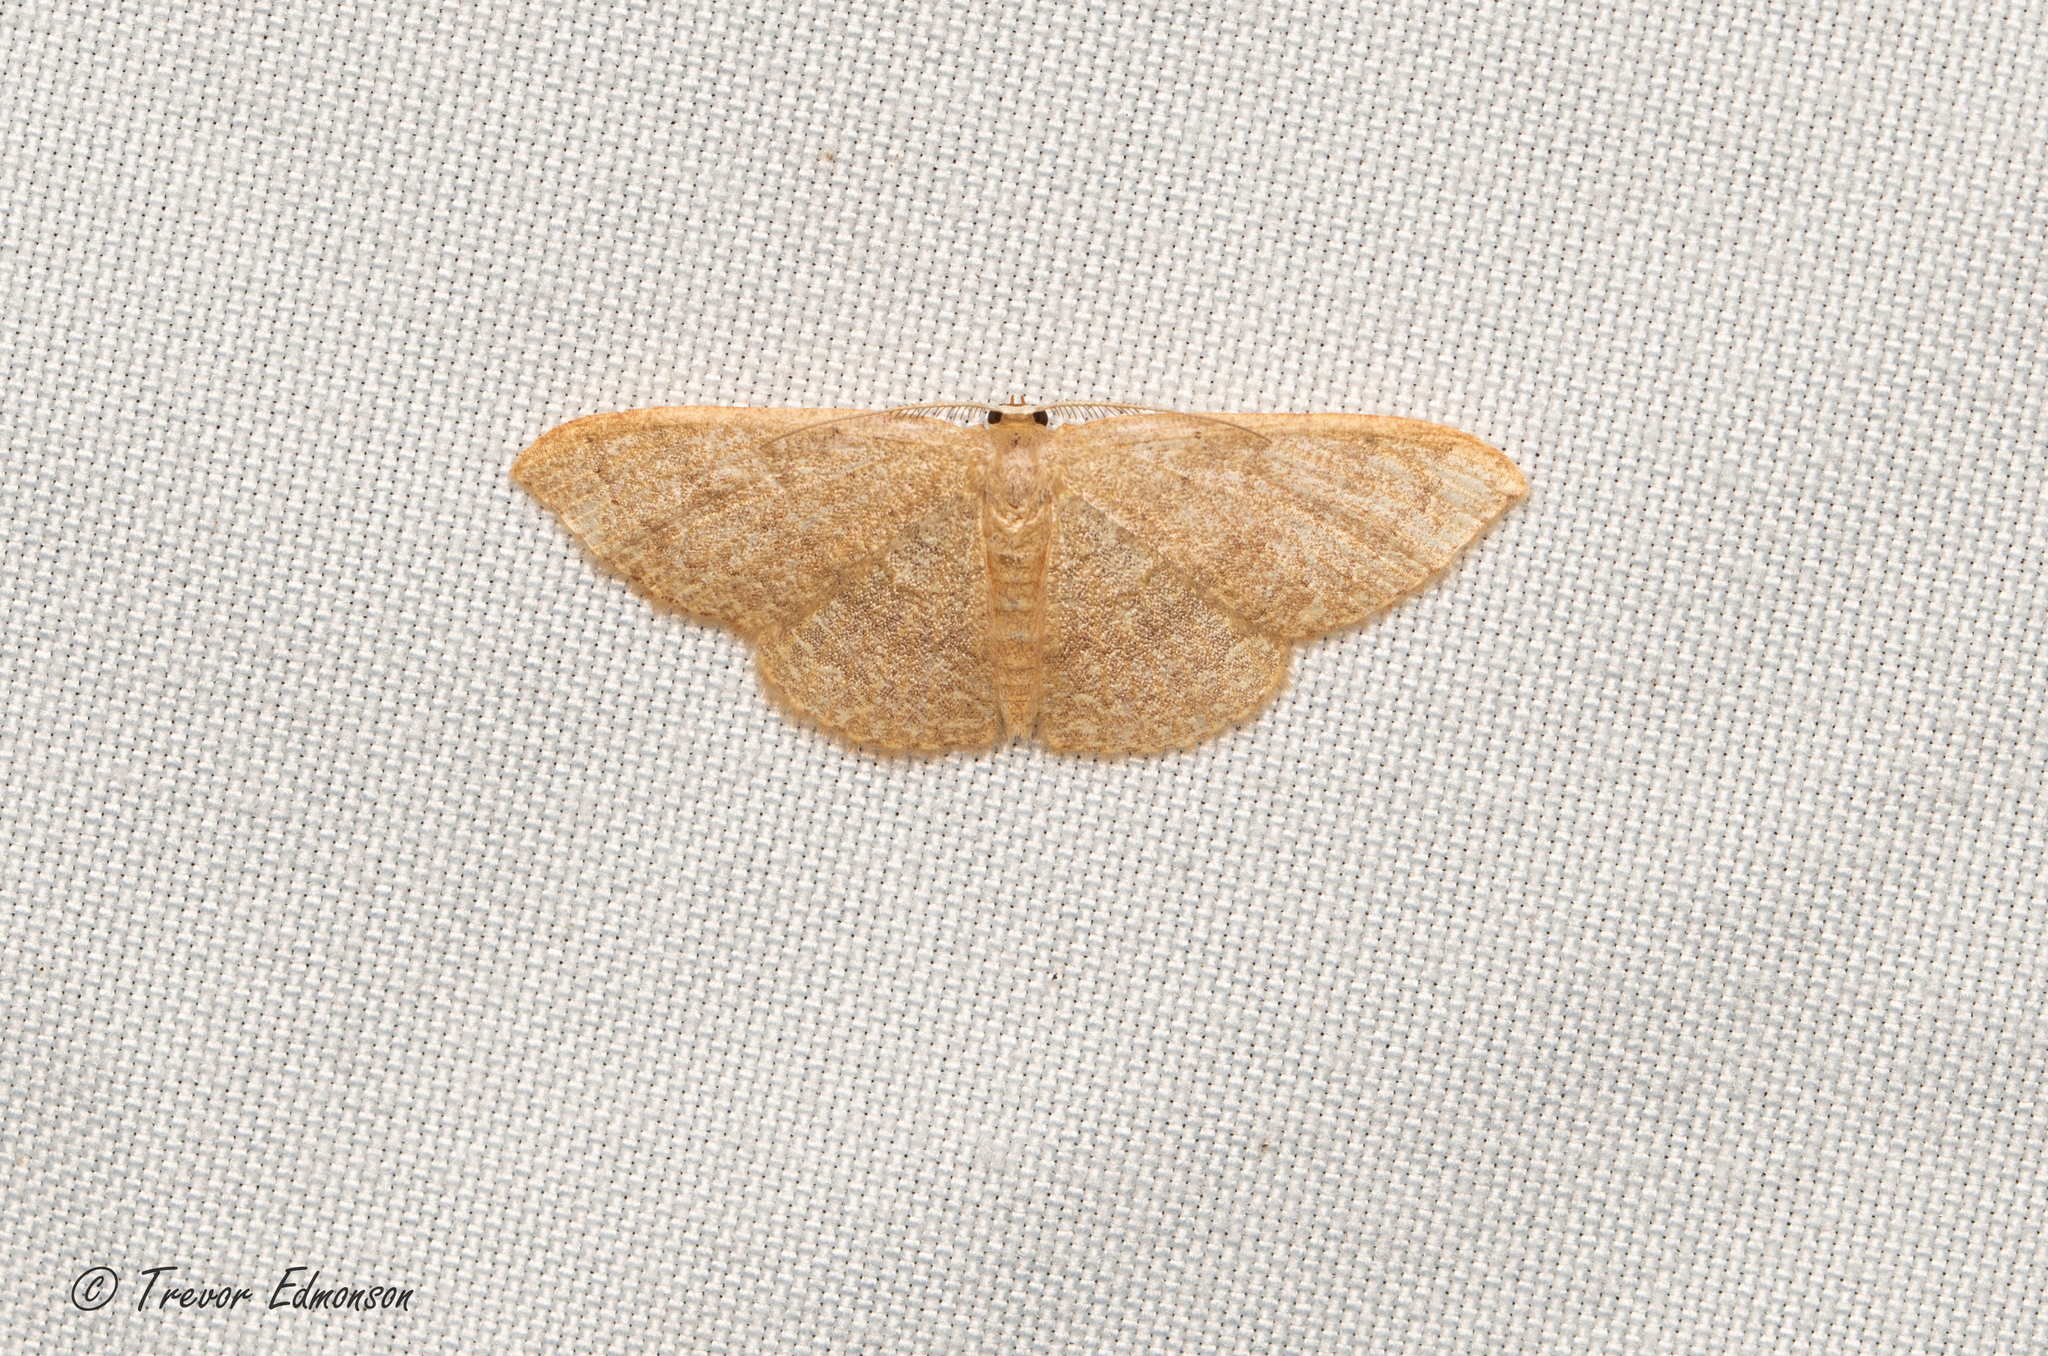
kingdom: Animalia
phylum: Arthropoda
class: Insecta
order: Lepidoptera
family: Geometridae
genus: Pleuroprucha
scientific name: Pleuroprucha insulsaria
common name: Common tan wave
